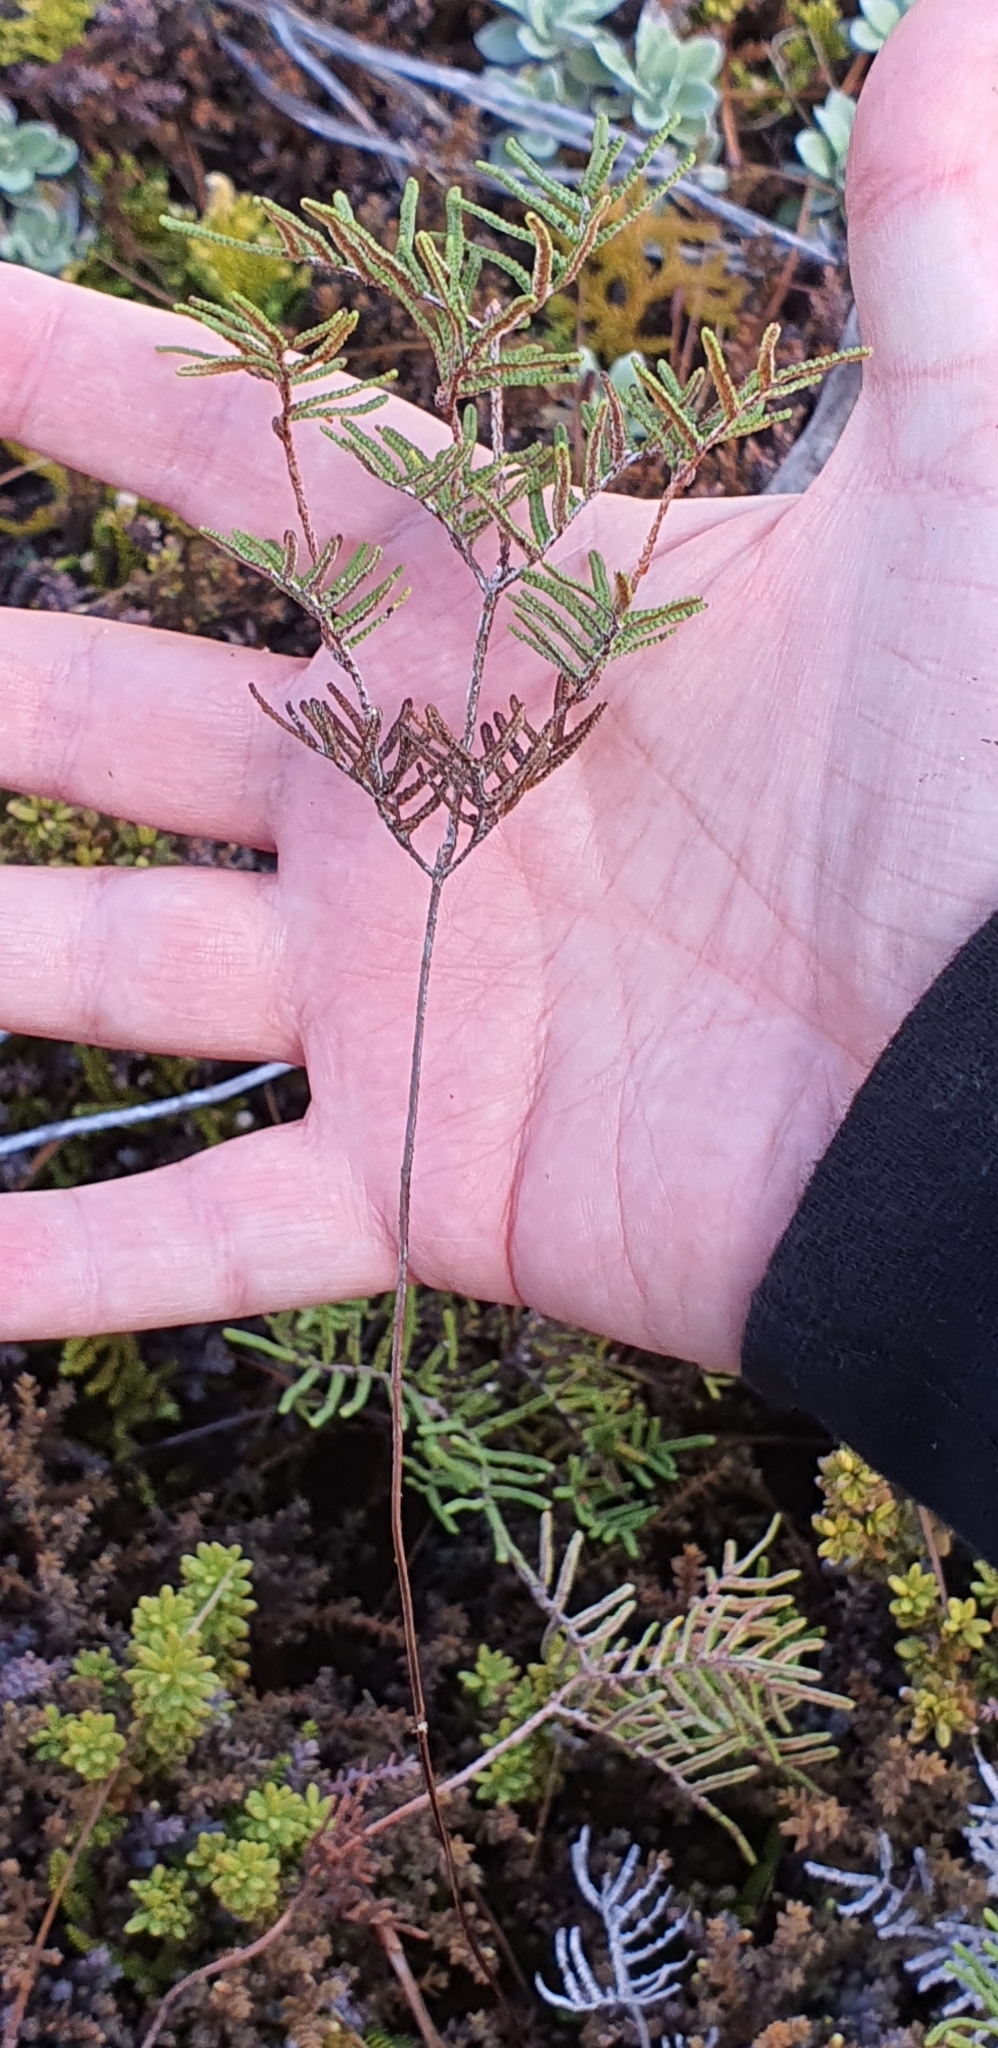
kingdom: Plantae
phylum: Tracheophyta
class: Polypodiopsida
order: Gleicheniales
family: Gleicheniaceae
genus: Gleichenia
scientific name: Gleichenia alpina
